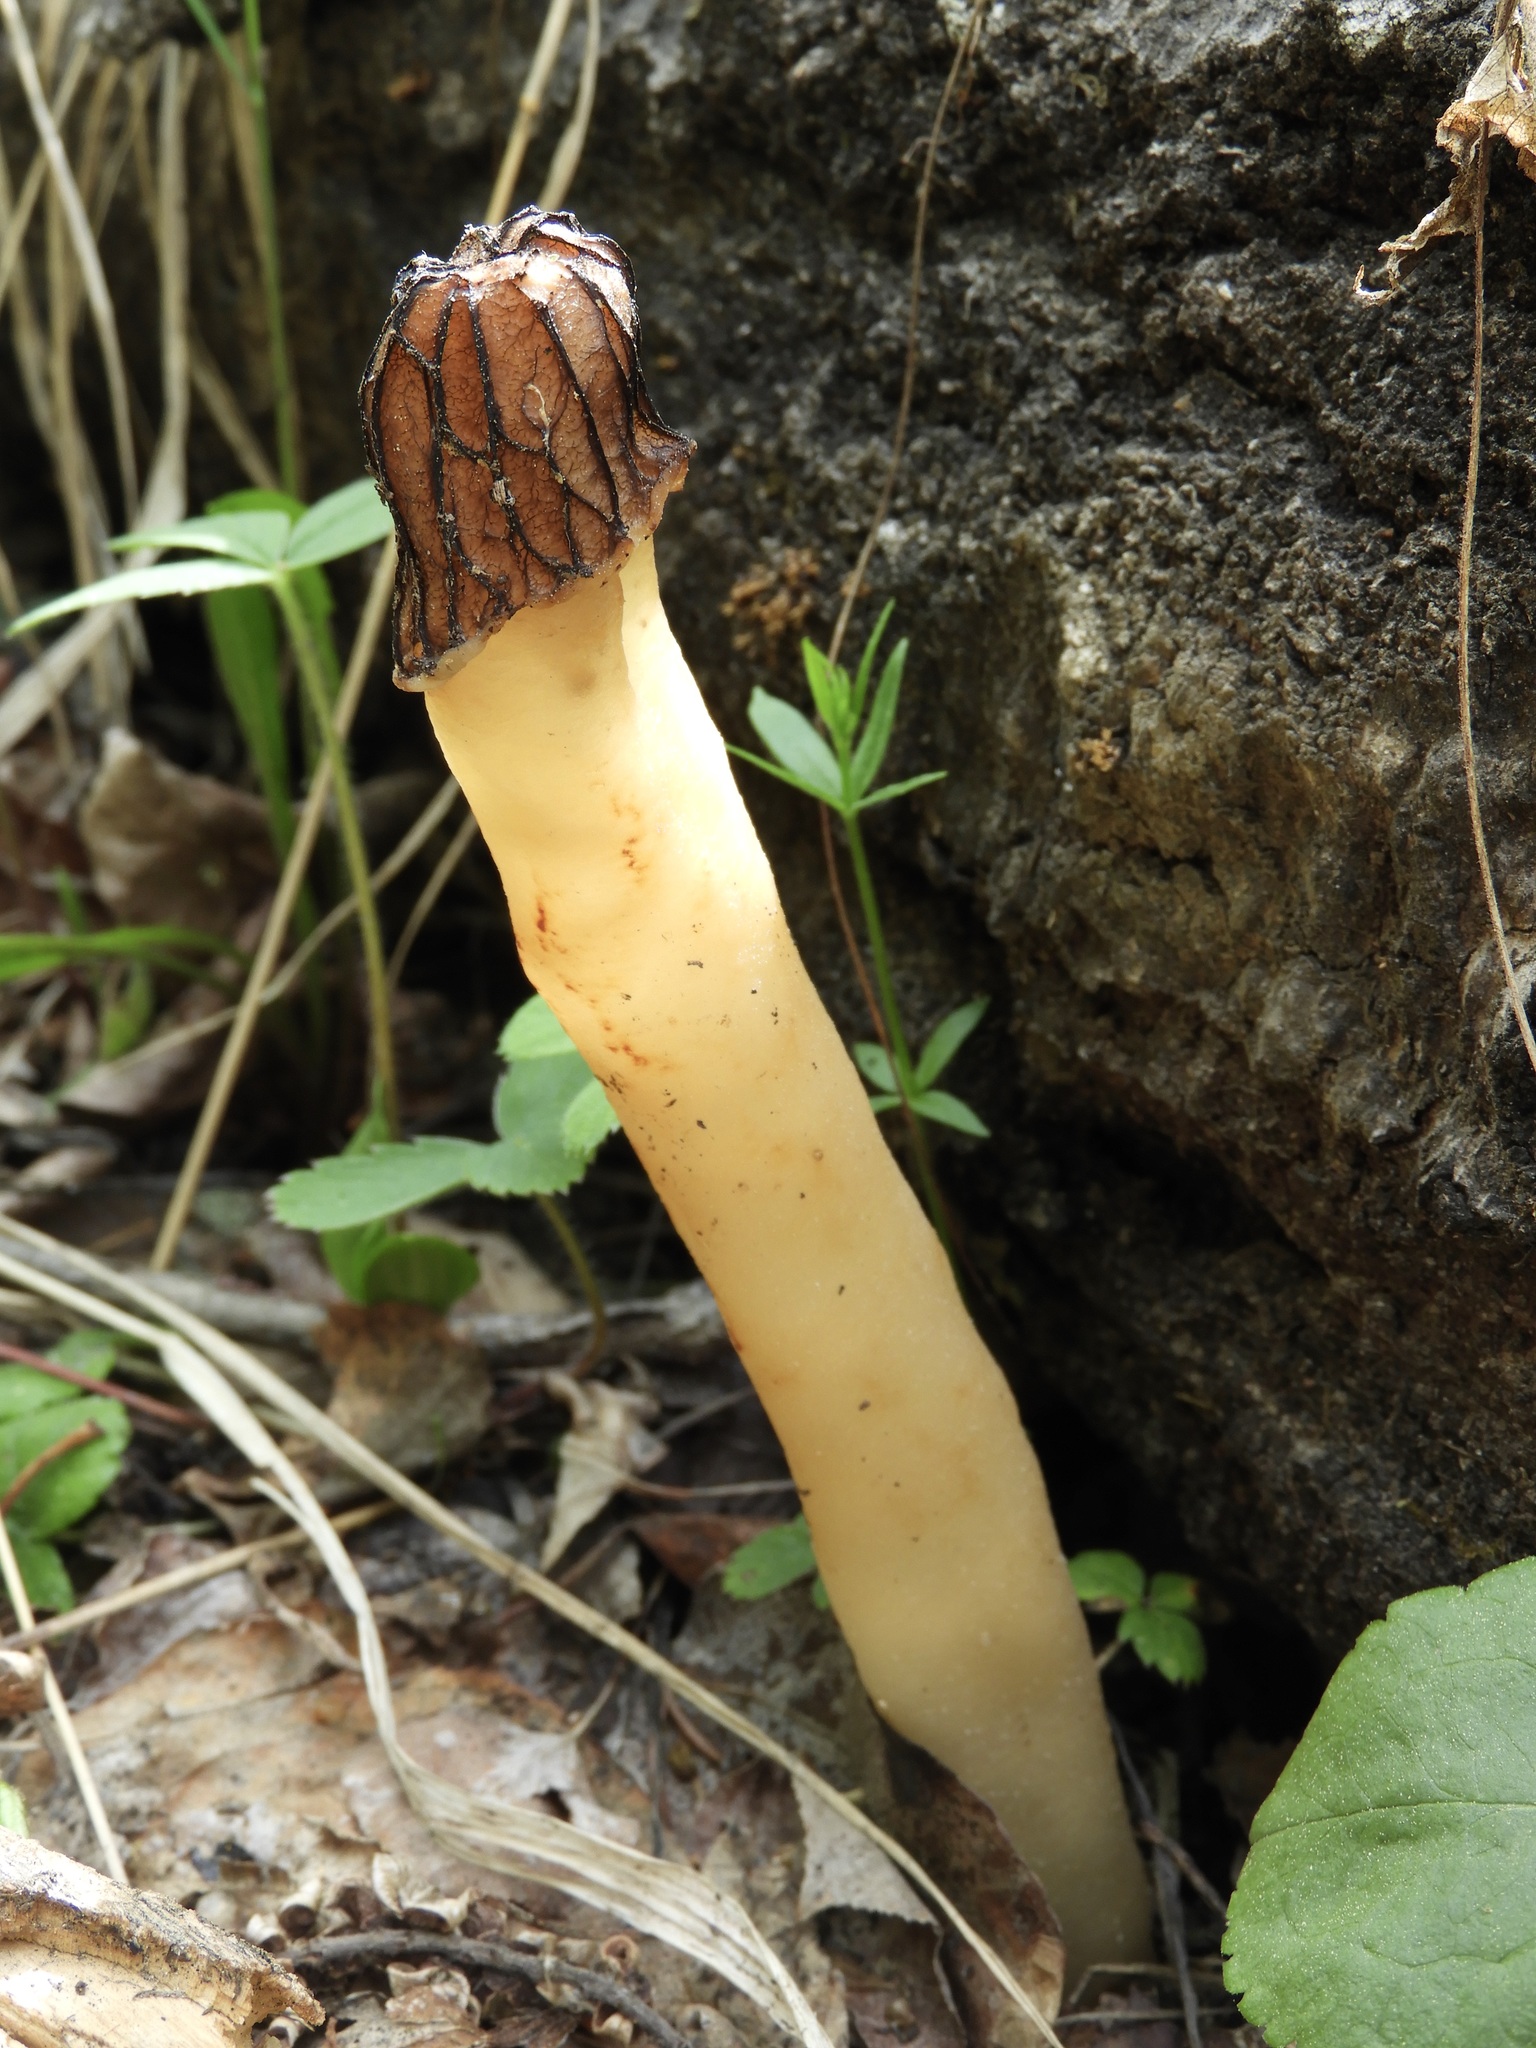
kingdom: Fungi
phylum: Ascomycota
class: Pezizomycetes
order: Pezizales
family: Morchellaceae
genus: Verpa
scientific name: Verpa bohemica
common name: Wrinkled thimble morel
